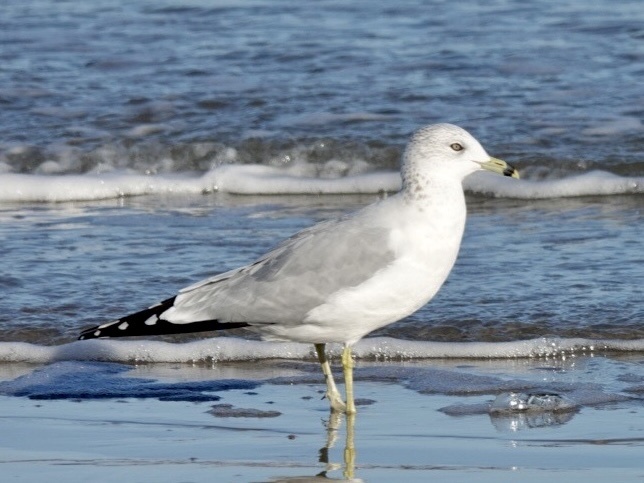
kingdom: Animalia
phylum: Chordata
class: Aves
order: Charadriiformes
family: Laridae
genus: Larus
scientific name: Larus delawarensis
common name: Ring-billed gull
